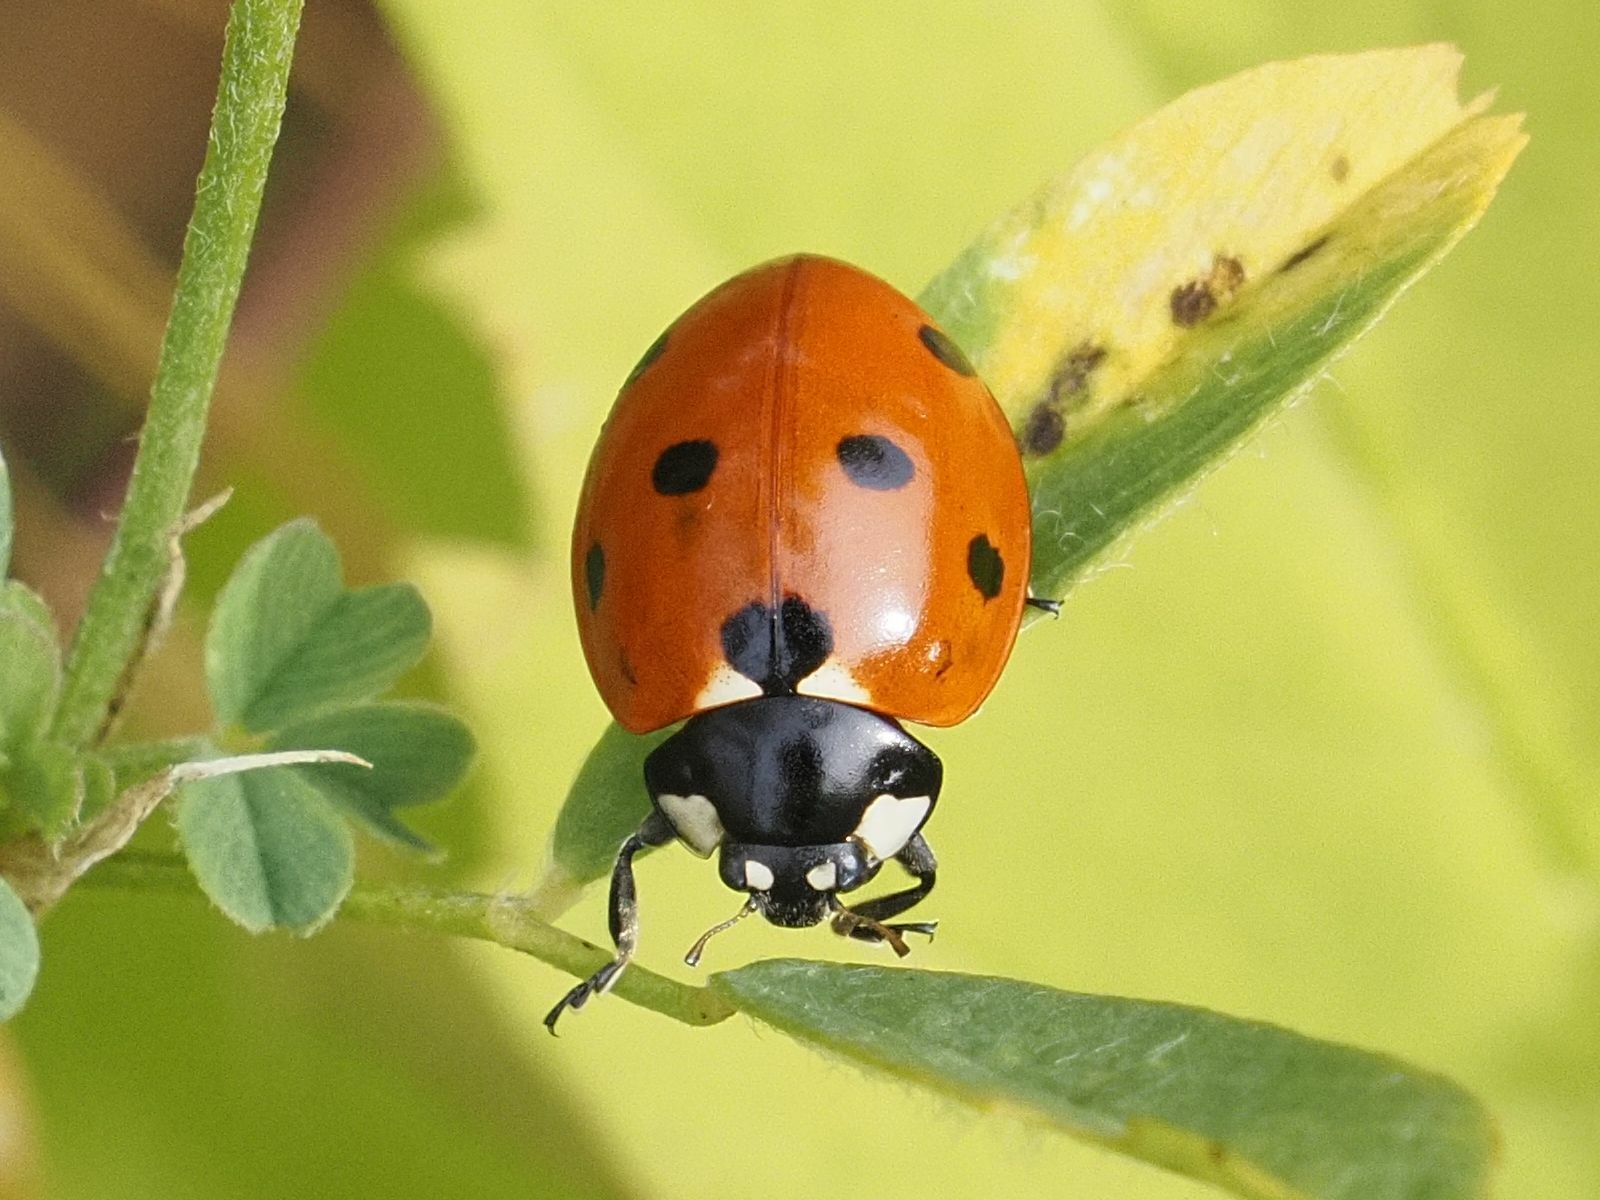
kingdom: Animalia
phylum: Arthropoda
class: Insecta
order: Coleoptera
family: Coccinellidae
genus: Coccinella
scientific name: Coccinella septempunctata
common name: Sevenspotted lady beetle
